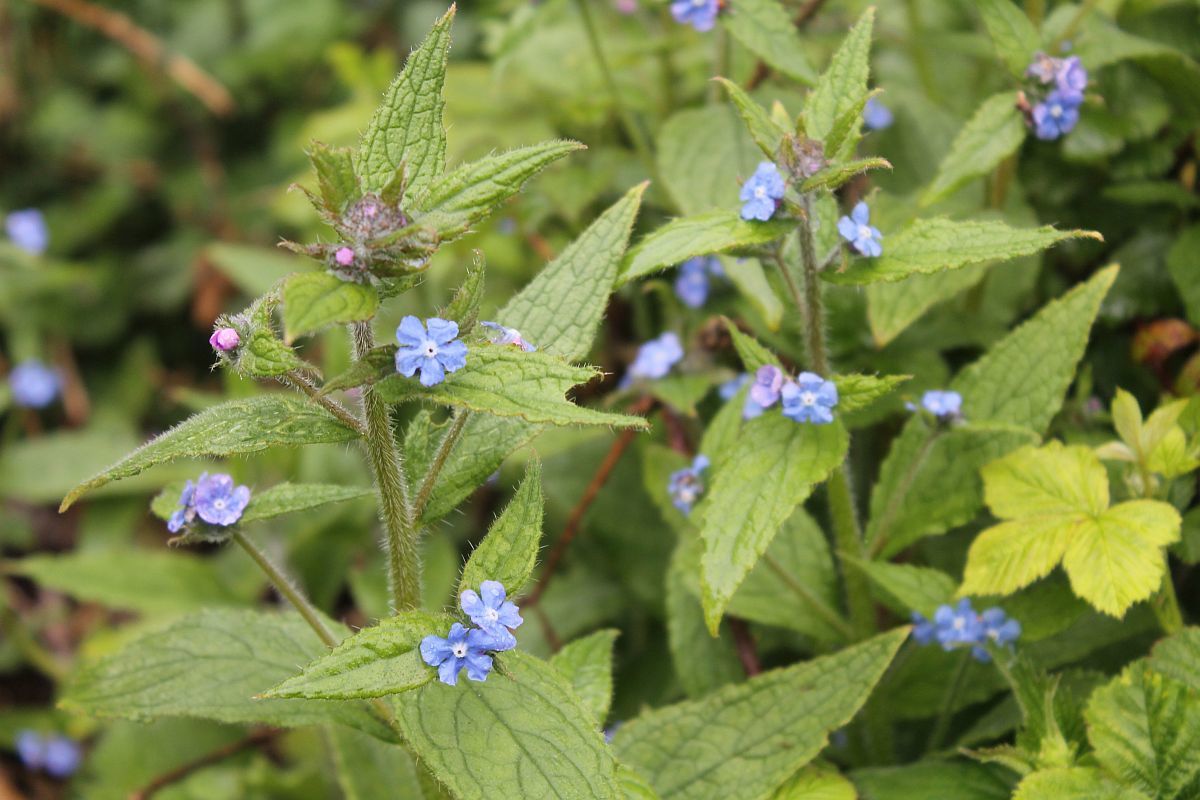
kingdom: Plantae
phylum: Tracheophyta
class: Magnoliopsida
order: Boraginales
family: Boraginaceae
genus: Pentaglottis
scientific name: Pentaglottis sempervirens
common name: Green alkanet
